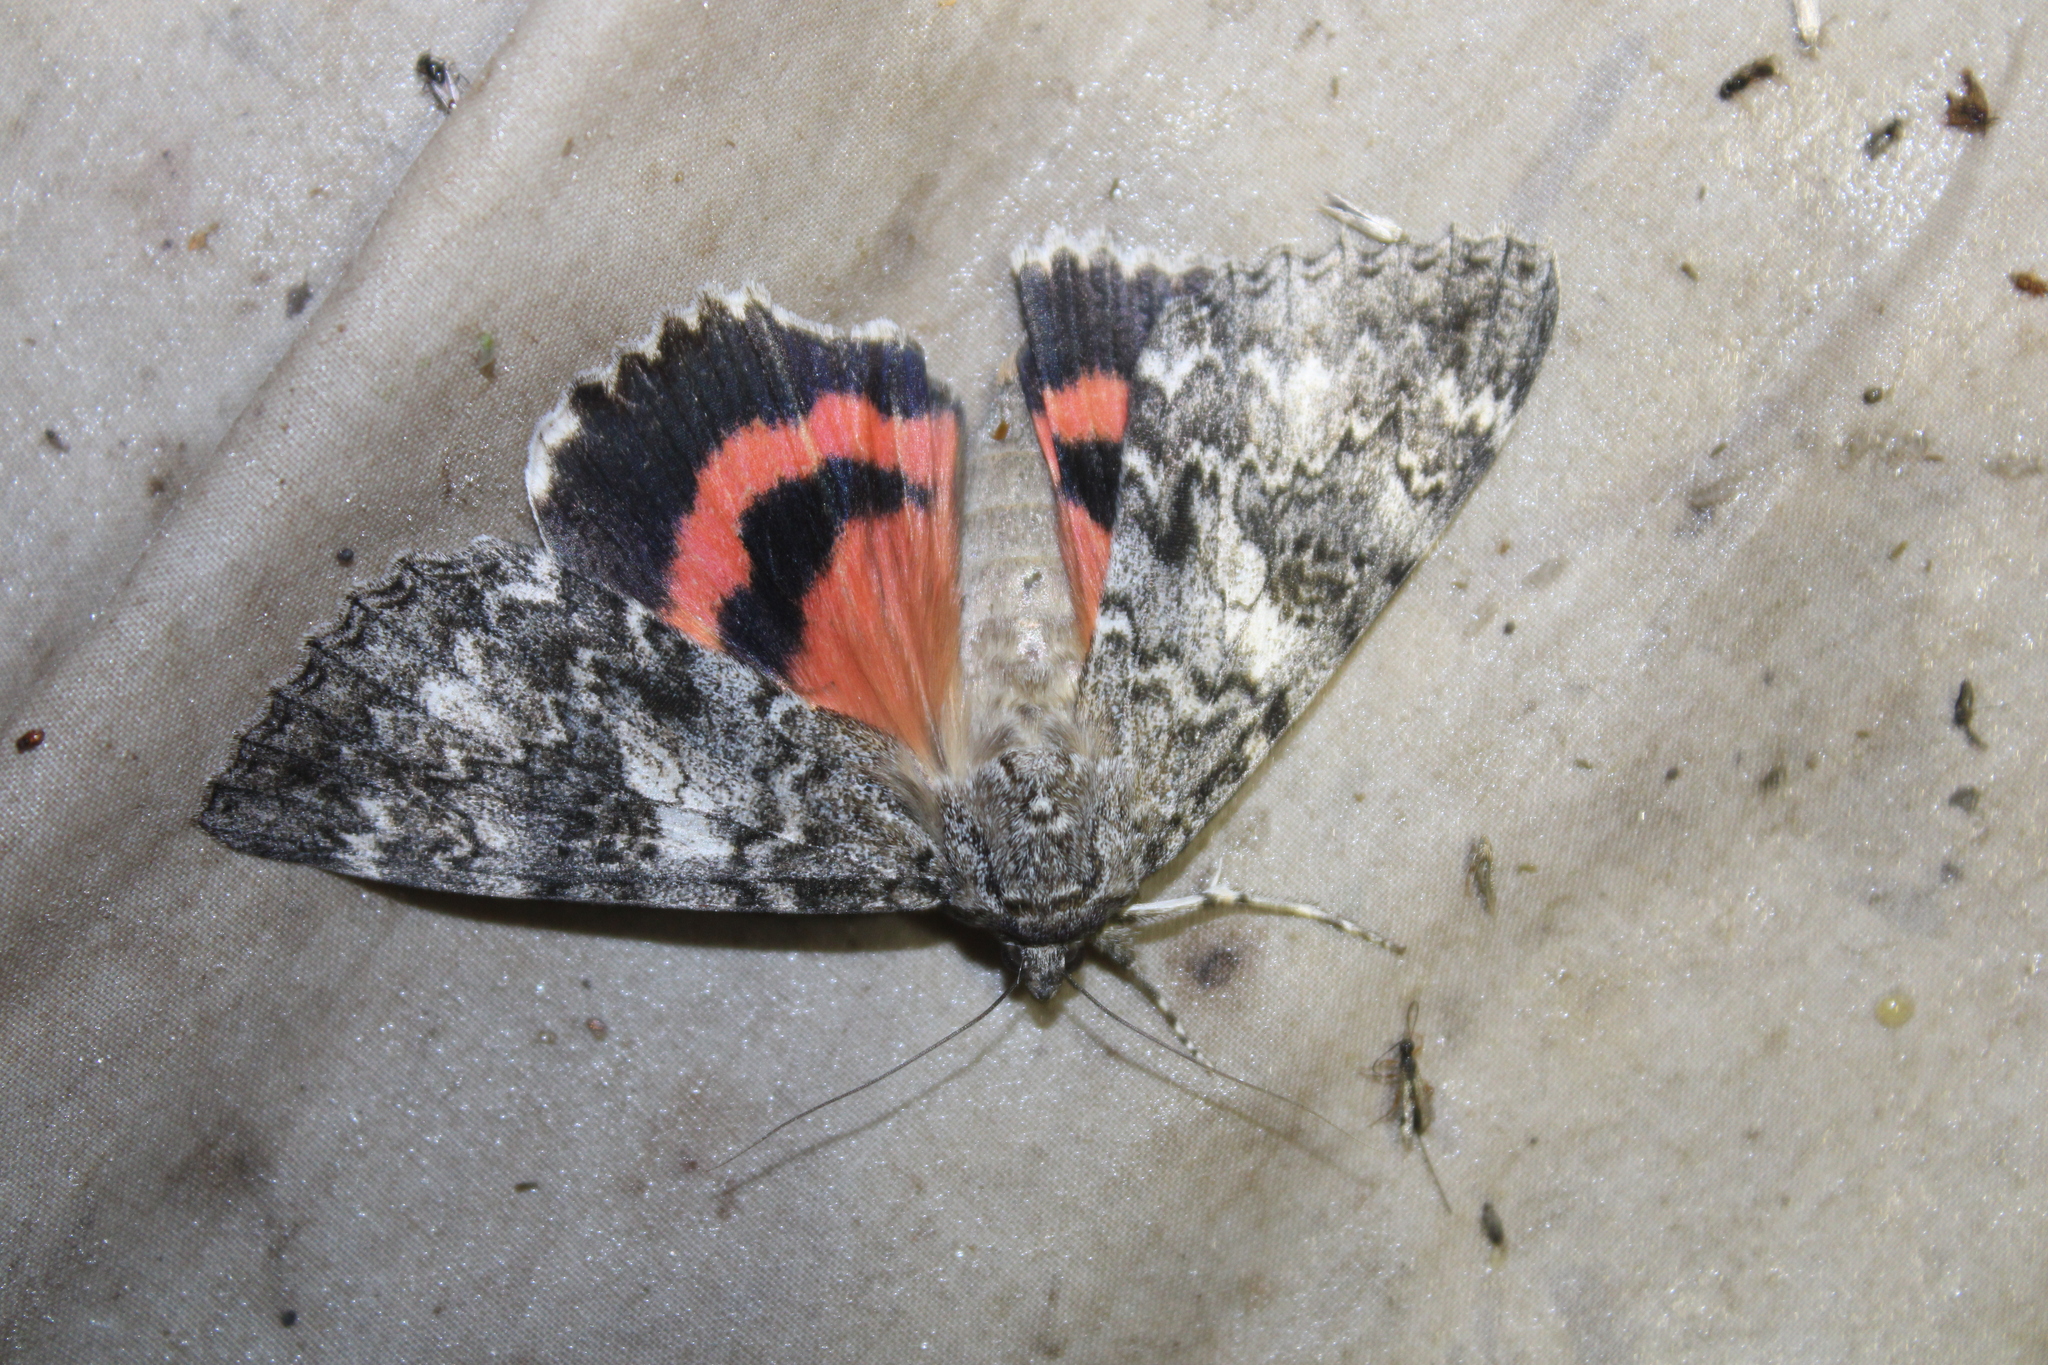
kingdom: Animalia
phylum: Arthropoda
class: Insecta
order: Lepidoptera
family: Erebidae
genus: Catocala
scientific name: Catocala unijuga
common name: Once-married underwing
